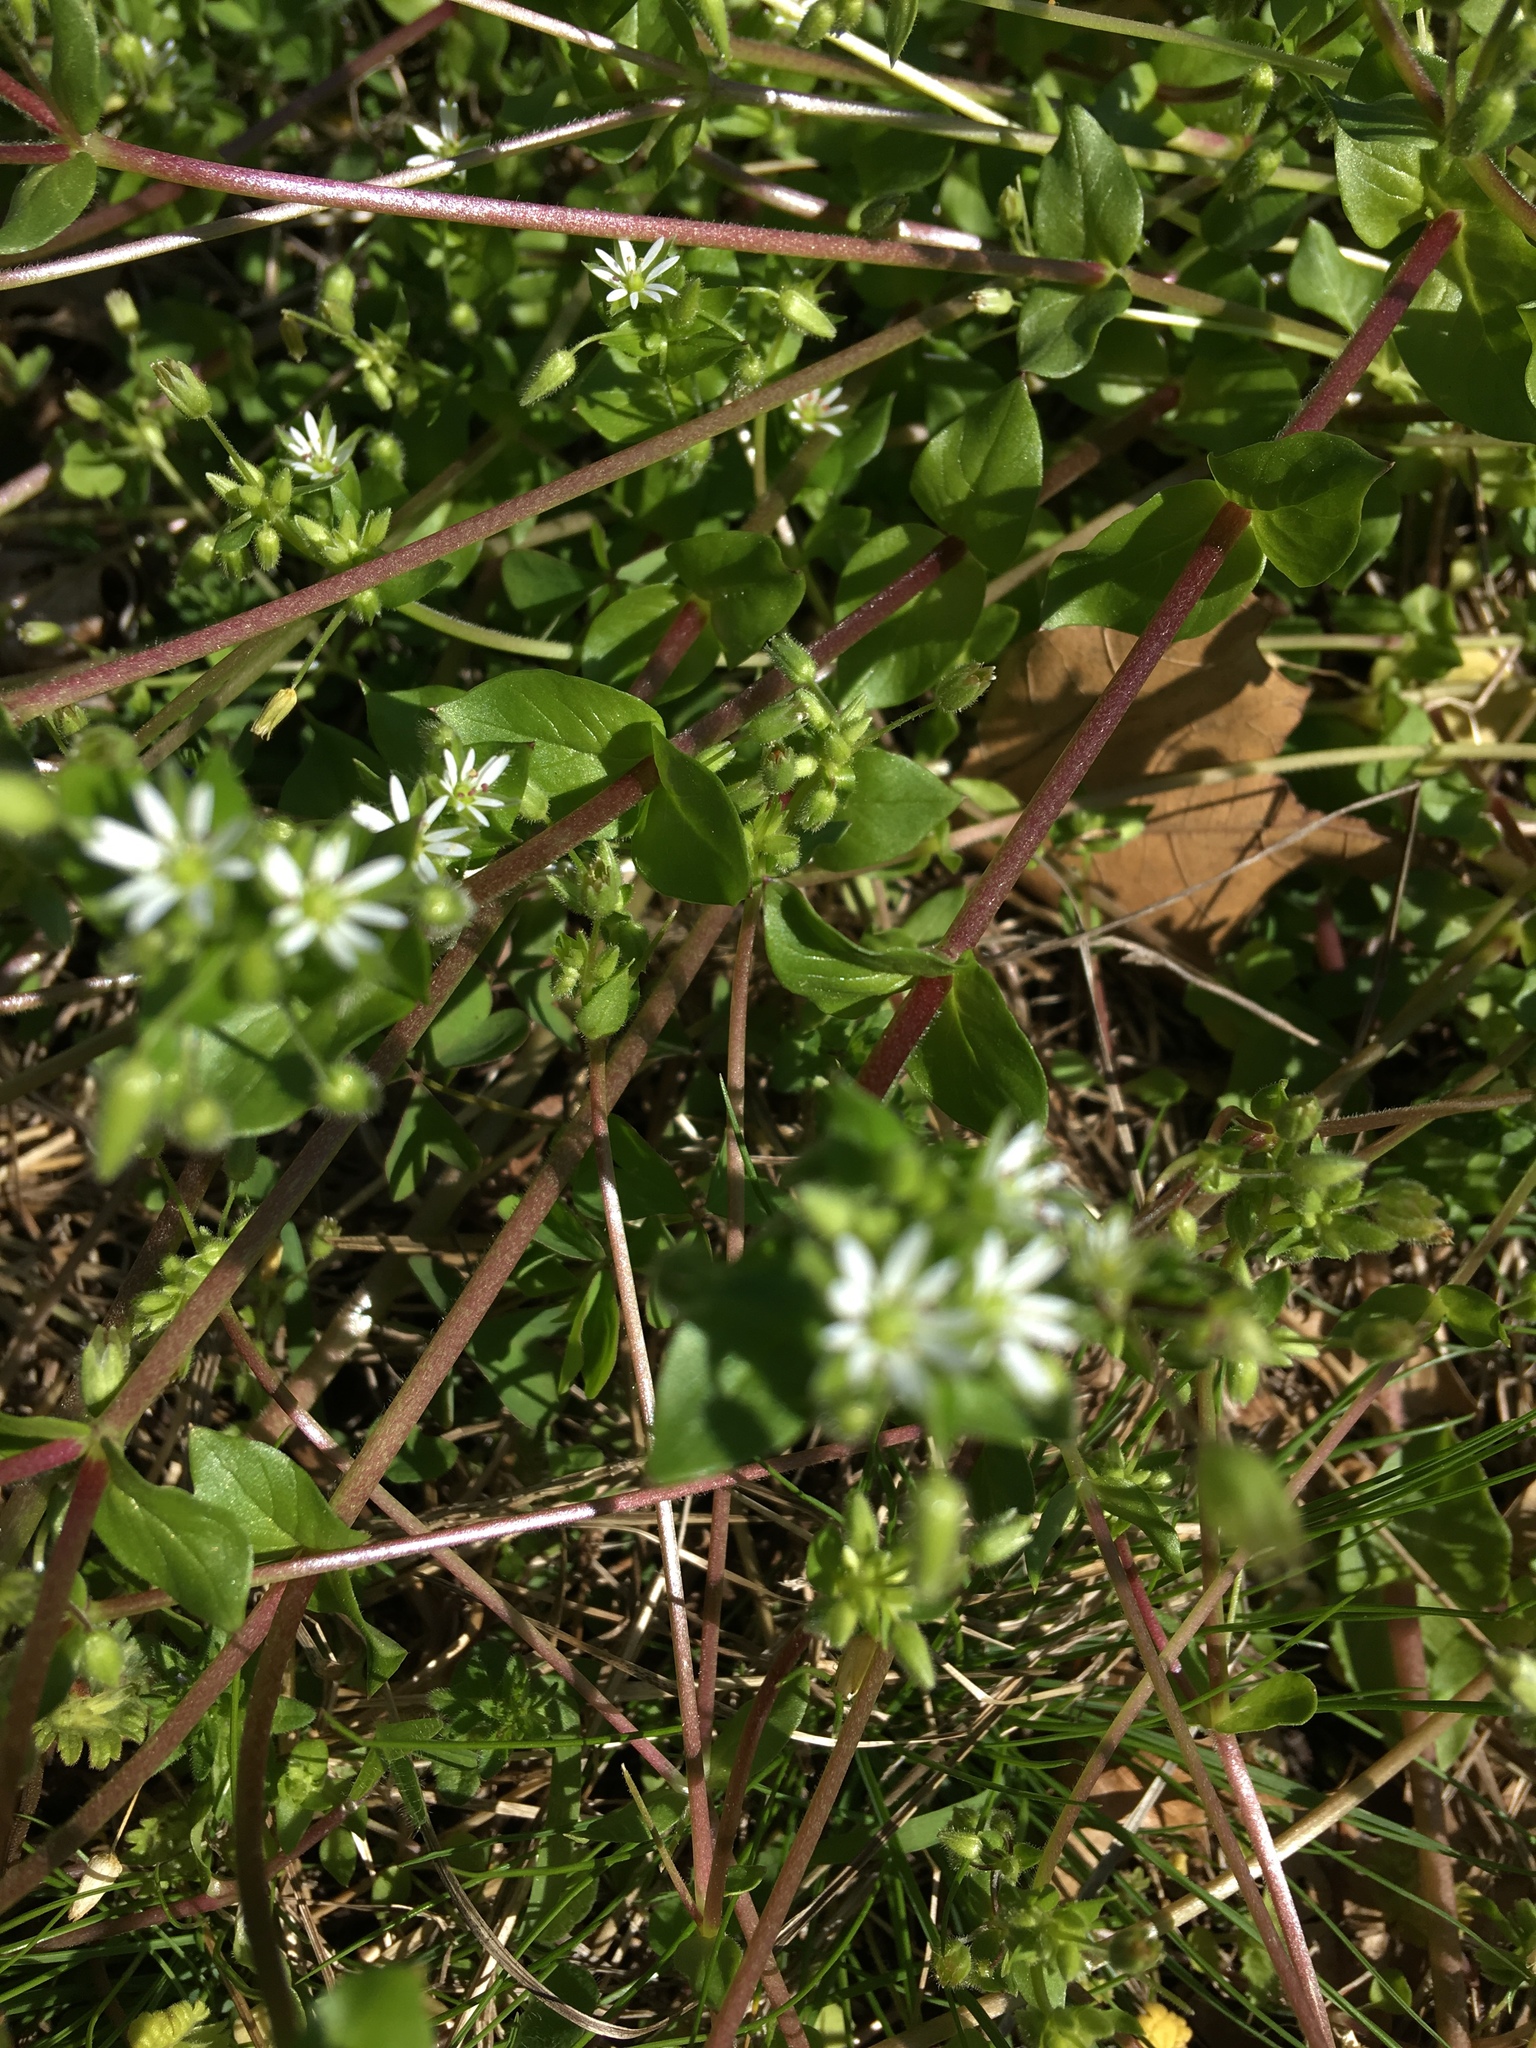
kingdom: Plantae
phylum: Tracheophyta
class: Magnoliopsida
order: Caryophyllales
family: Caryophyllaceae
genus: Stellaria
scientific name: Stellaria media
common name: Common chickweed
